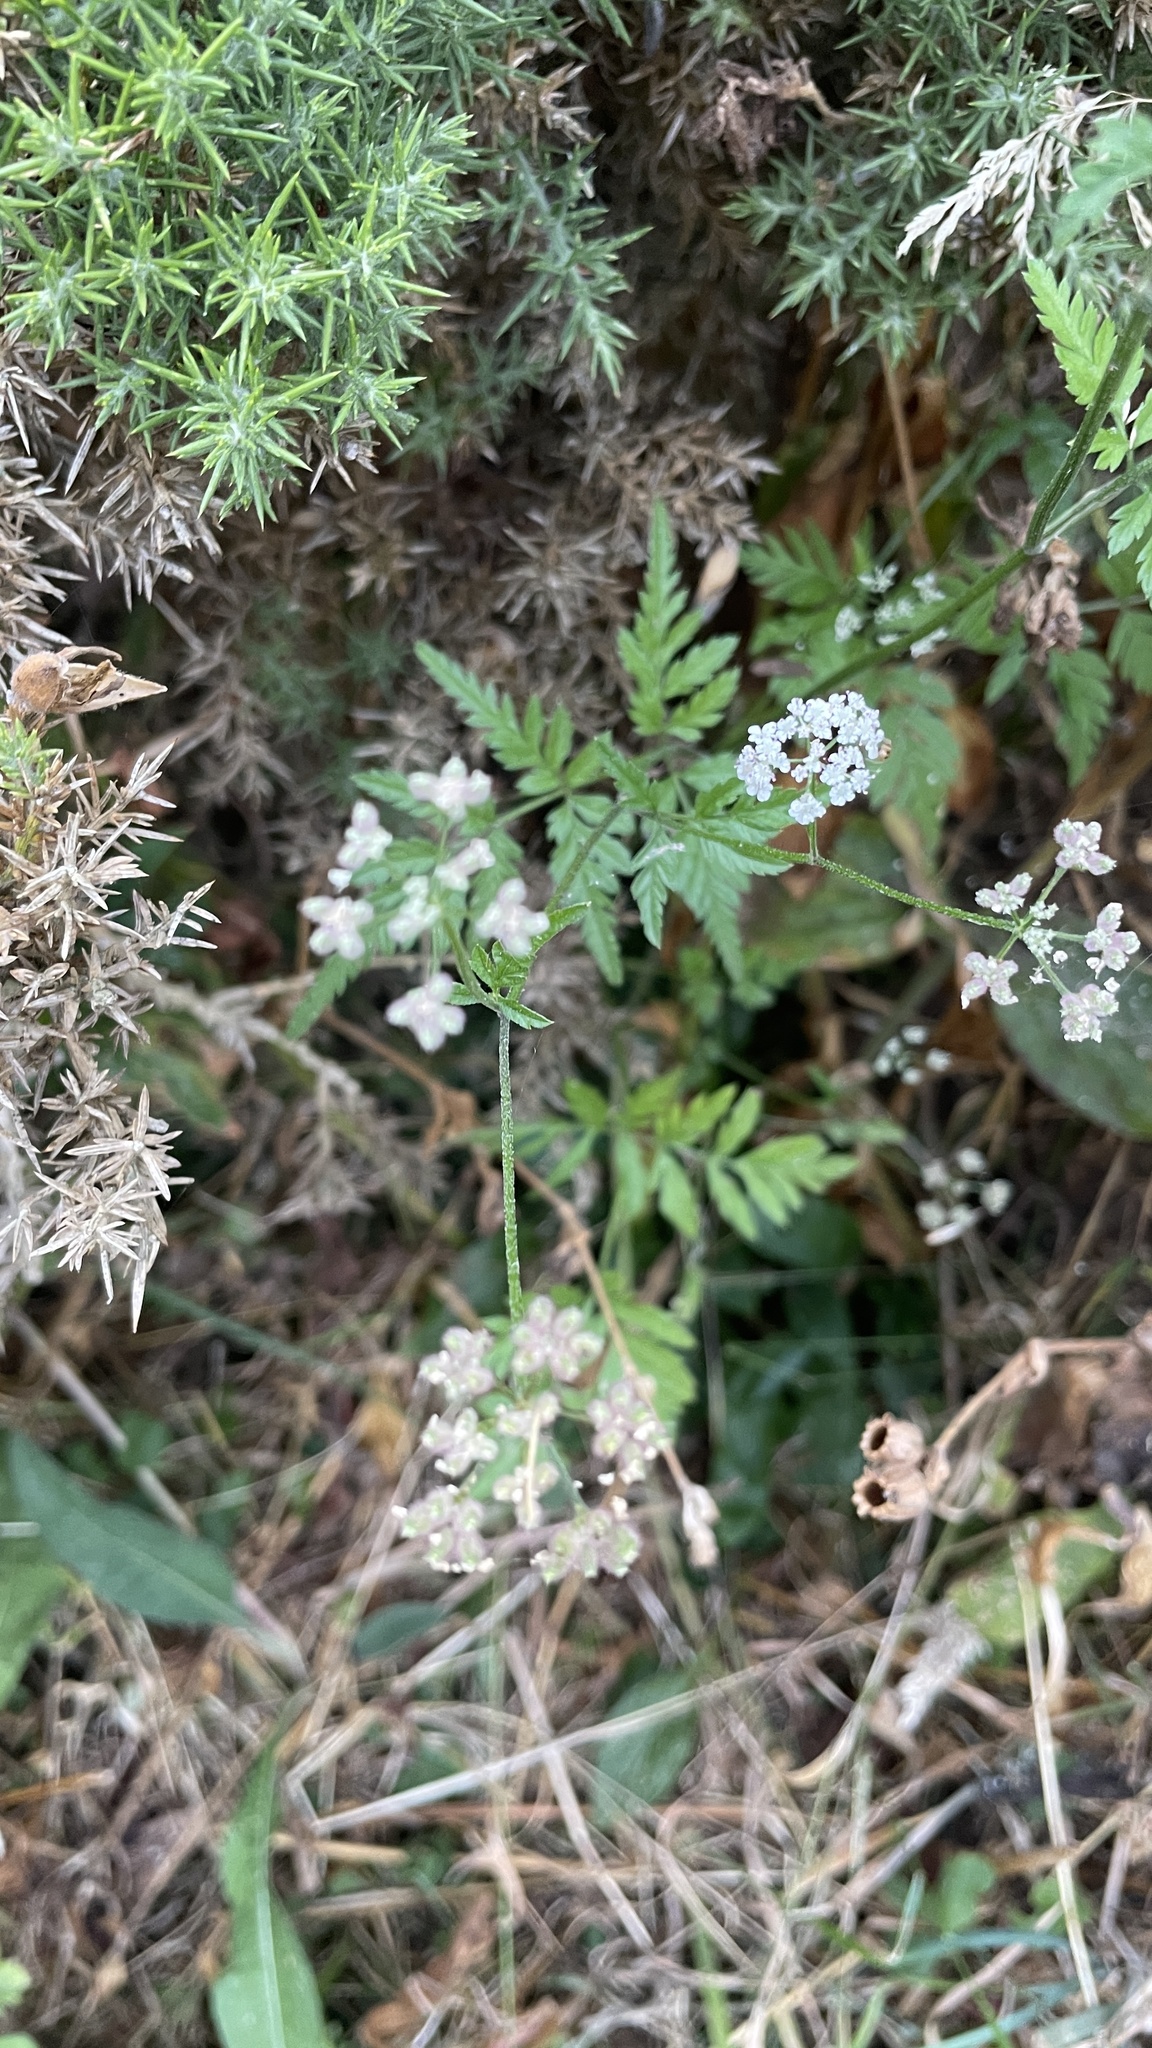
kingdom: Plantae
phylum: Tracheophyta
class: Magnoliopsida
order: Apiales
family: Apiaceae
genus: Torilis
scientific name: Torilis japonica
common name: Upright hedge-parsley
